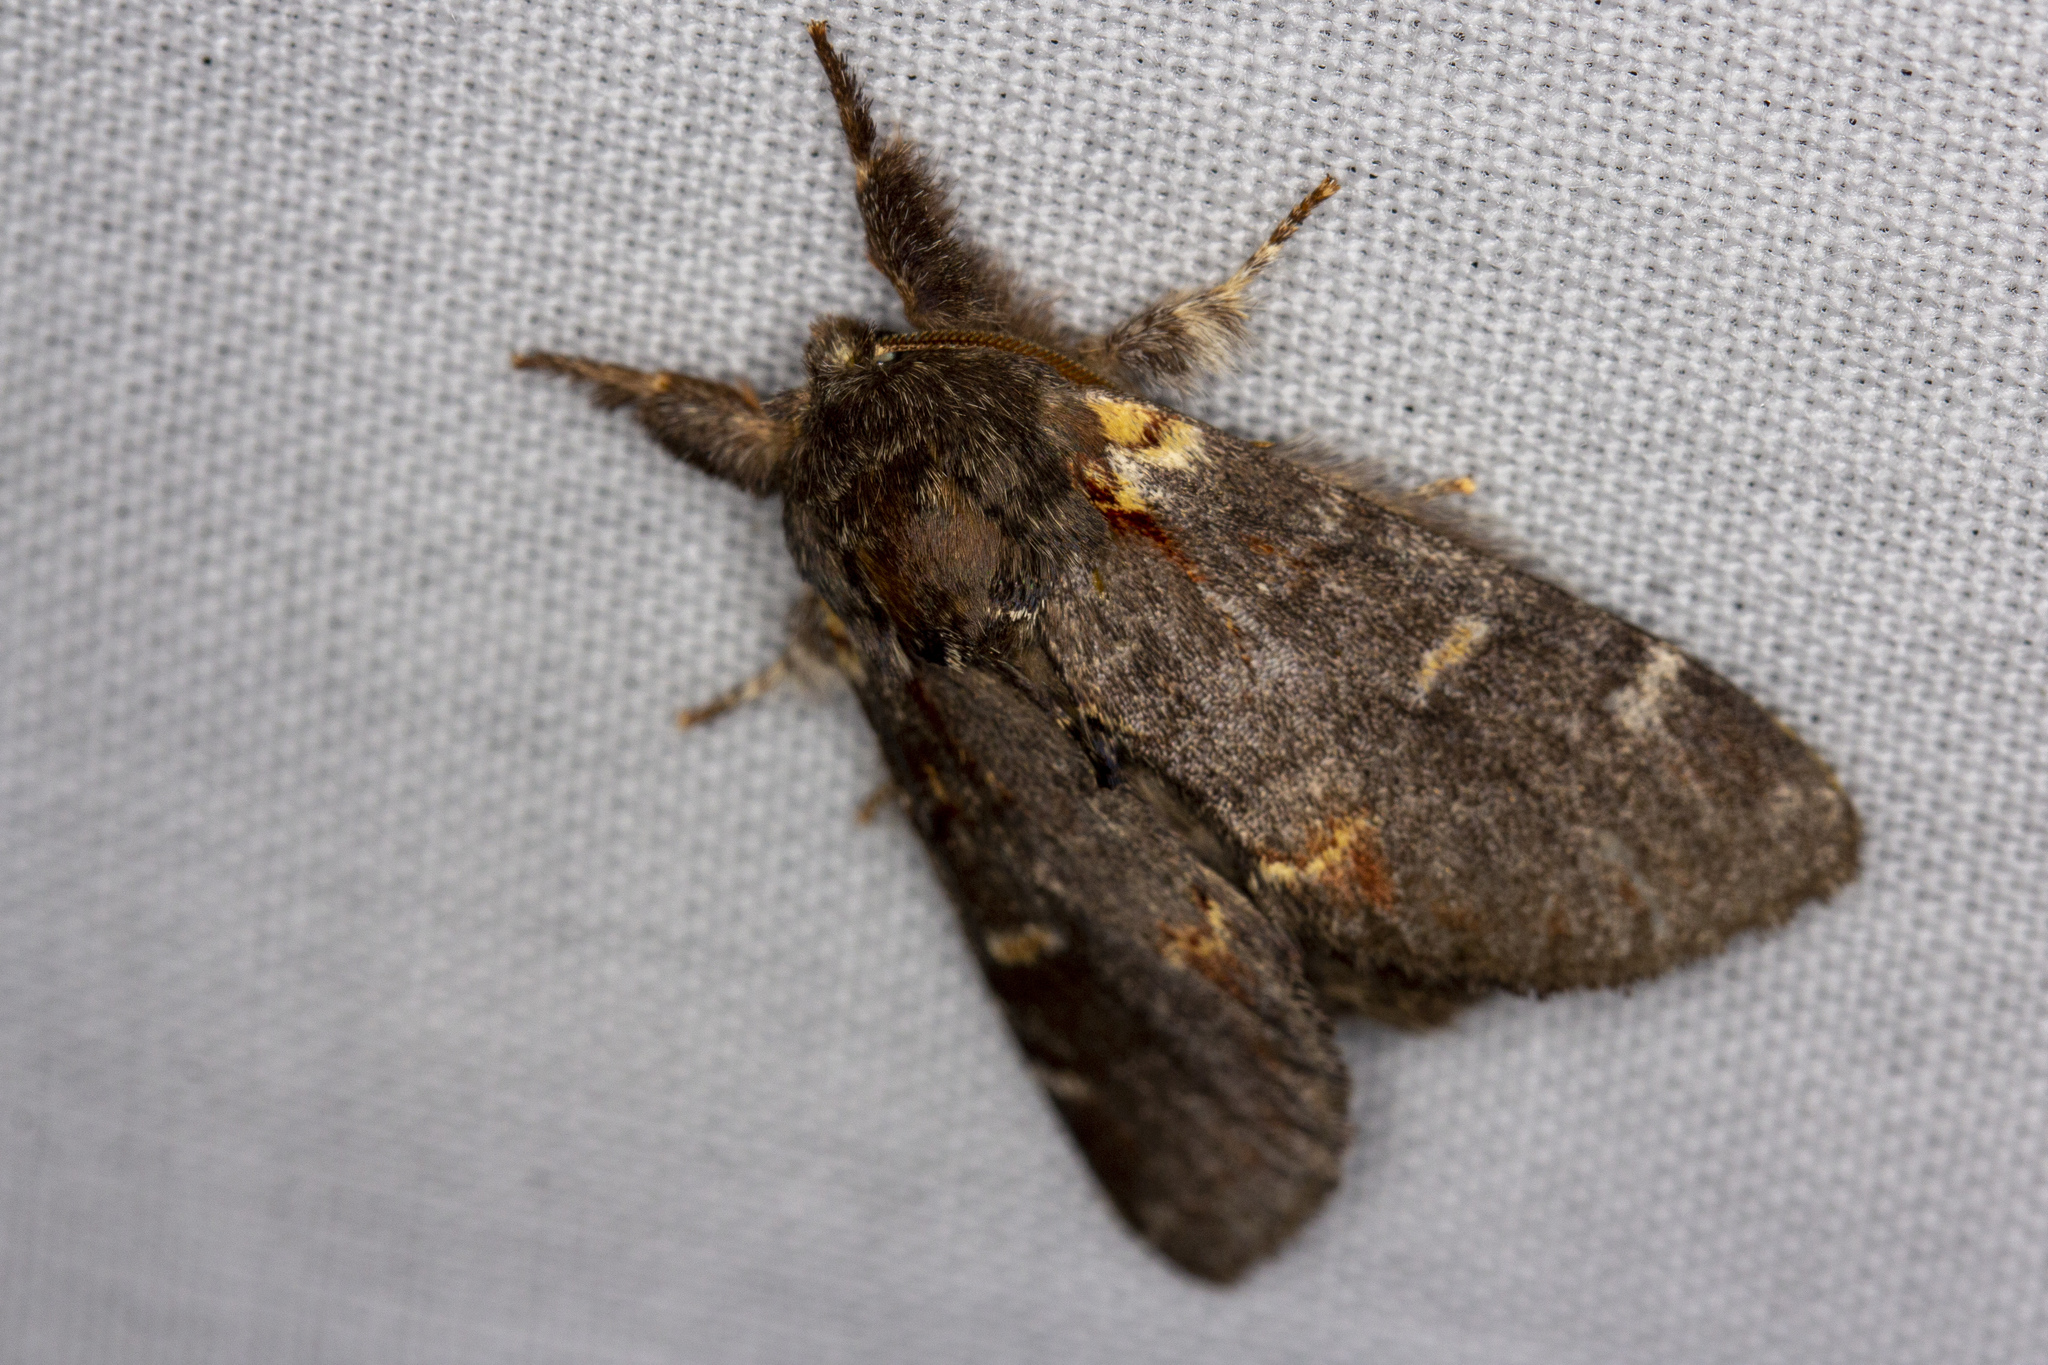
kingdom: Animalia
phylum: Arthropoda
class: Insecta
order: Lepidoptera
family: Notodontidae
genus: Notodonta
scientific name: Notodonta dromedarius
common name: Iron prominent
